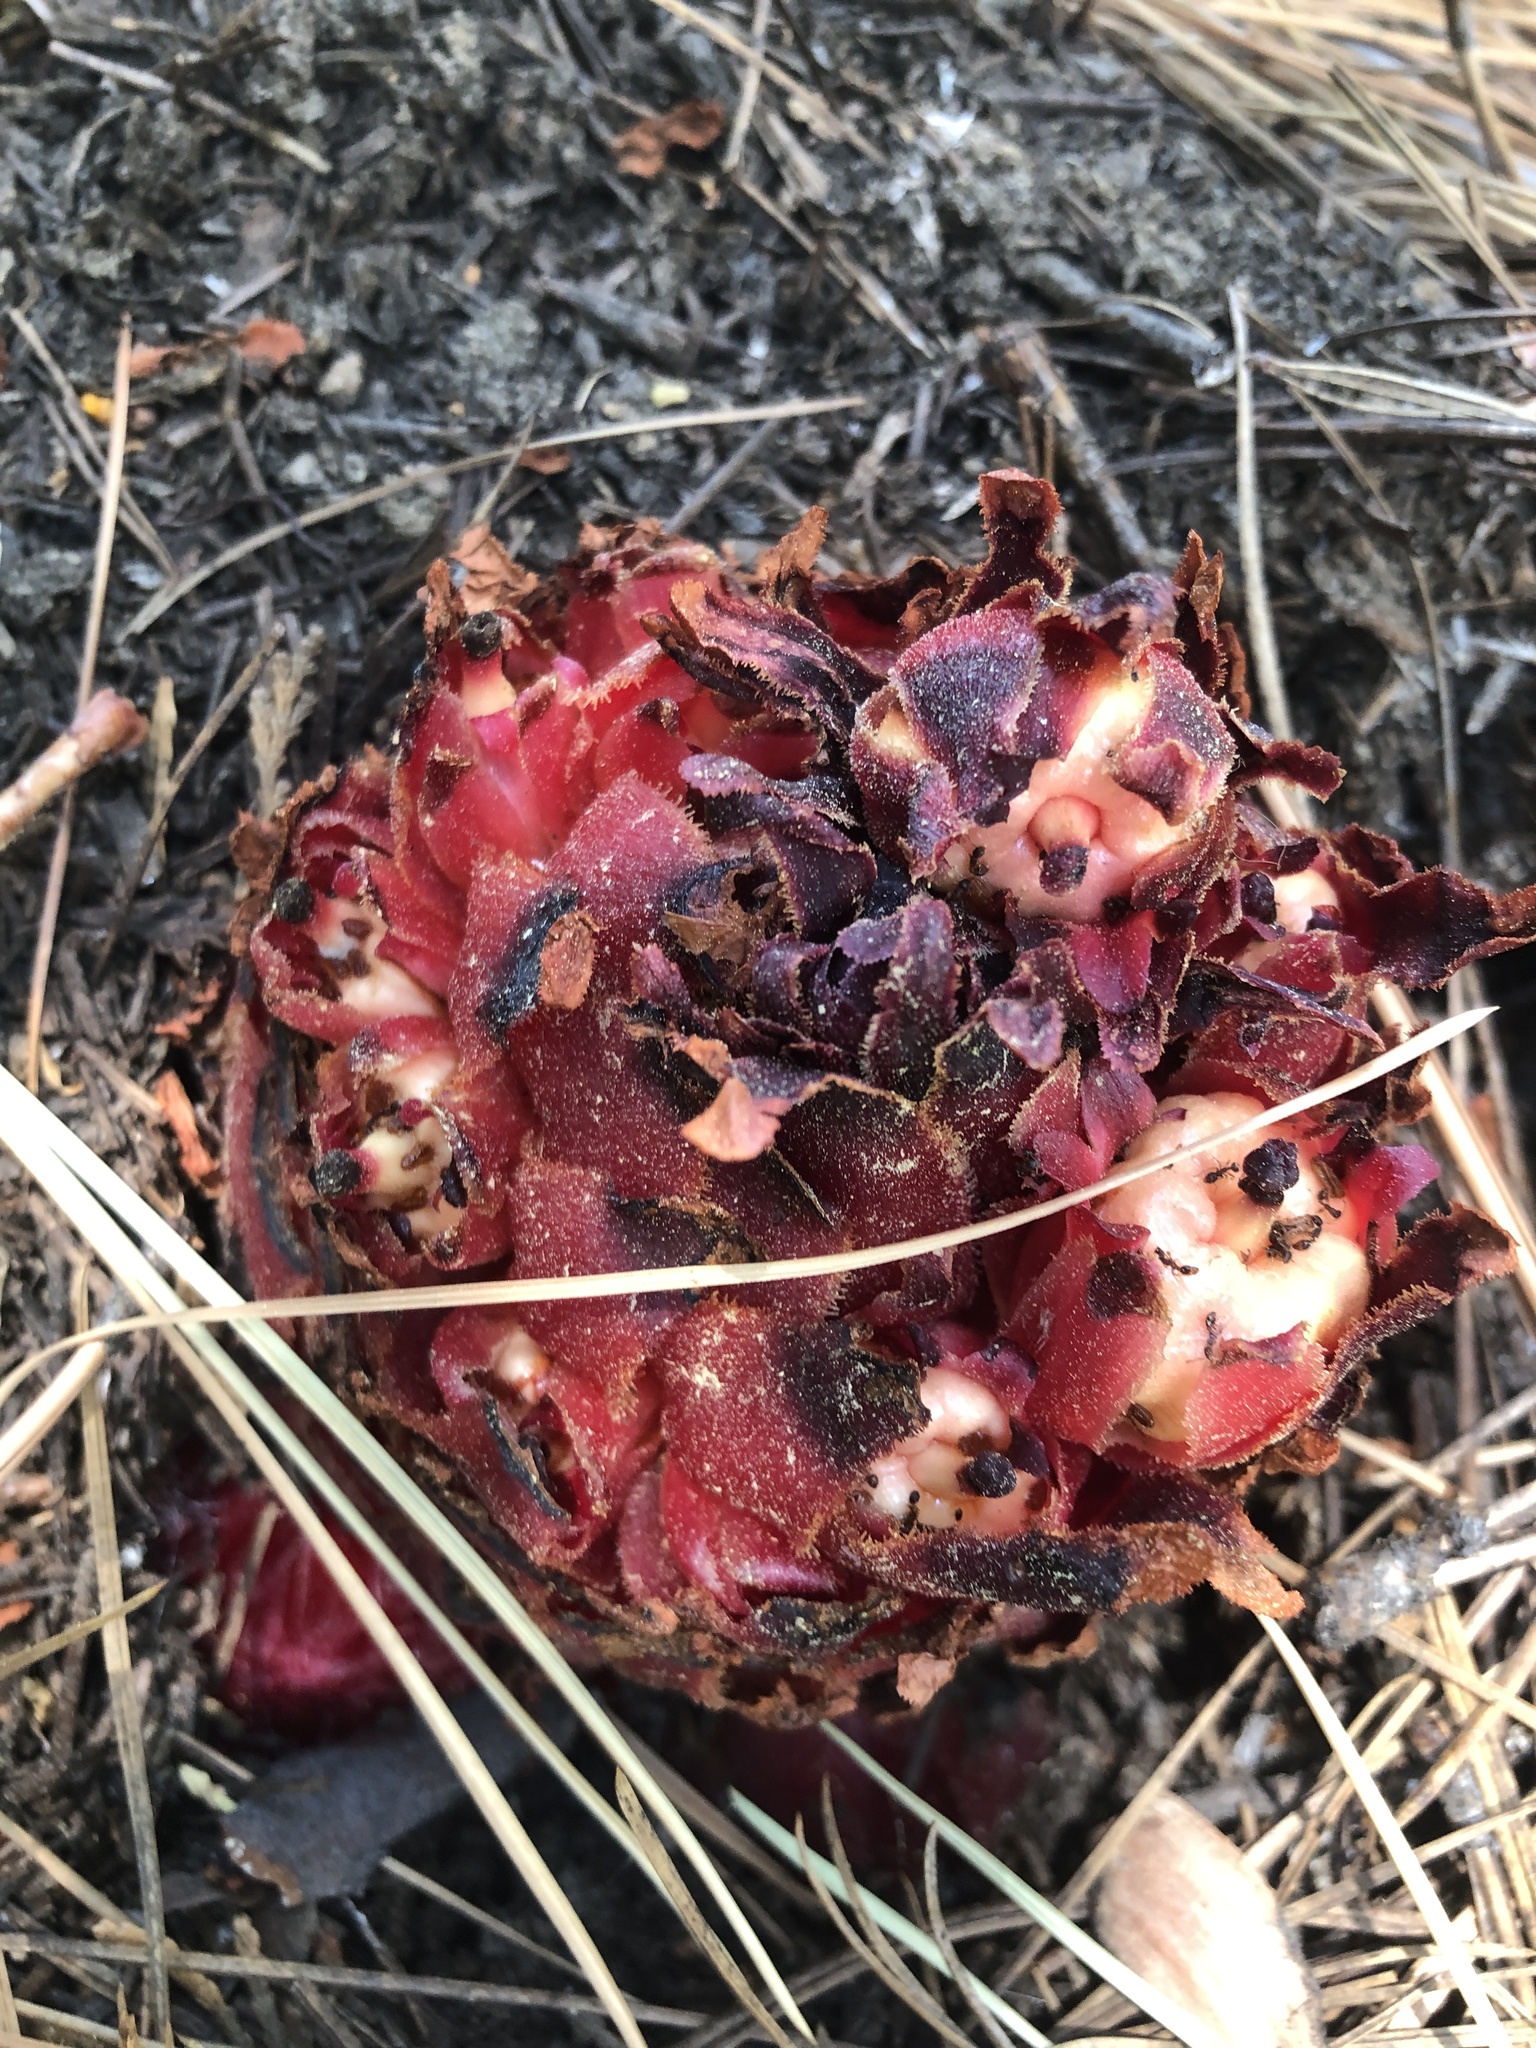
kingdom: Plantae
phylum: Tracheophyta
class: Magnoliopsida
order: Ericales
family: Ericaceae
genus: Sarcodes
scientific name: Sarcodes sanguinea
